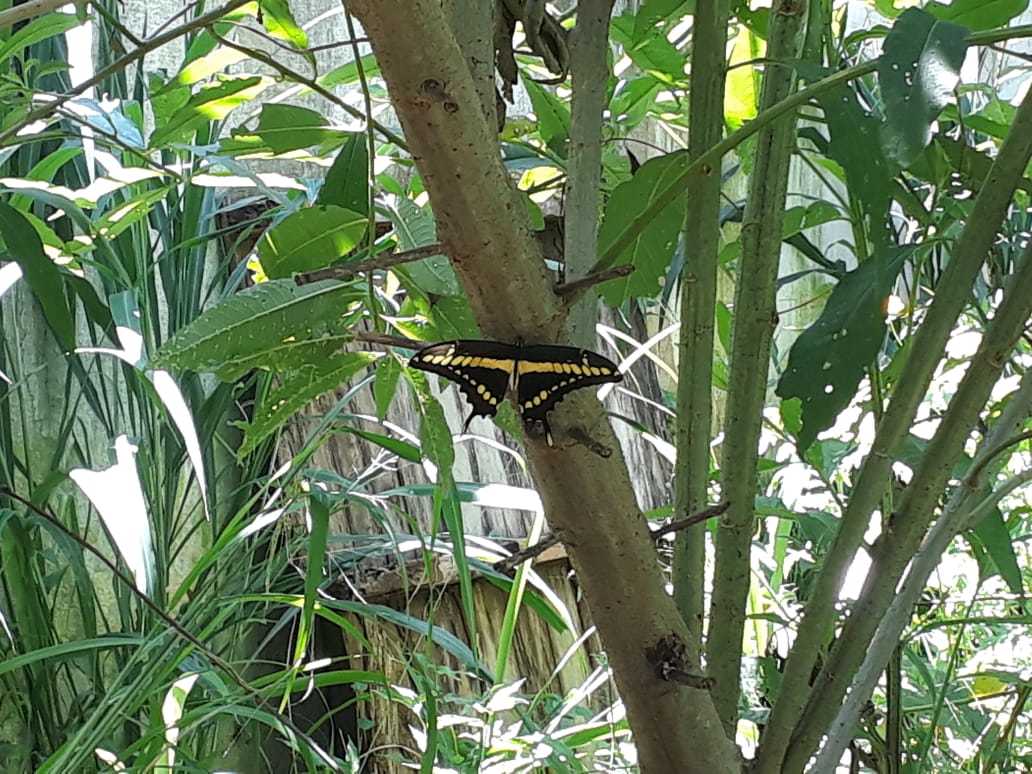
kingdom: Animalia
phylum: Arthropoda
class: Insecta
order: Lepidoptera
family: Papilionidae
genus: Papilio
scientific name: Papilio thoas
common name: King swallowtail
